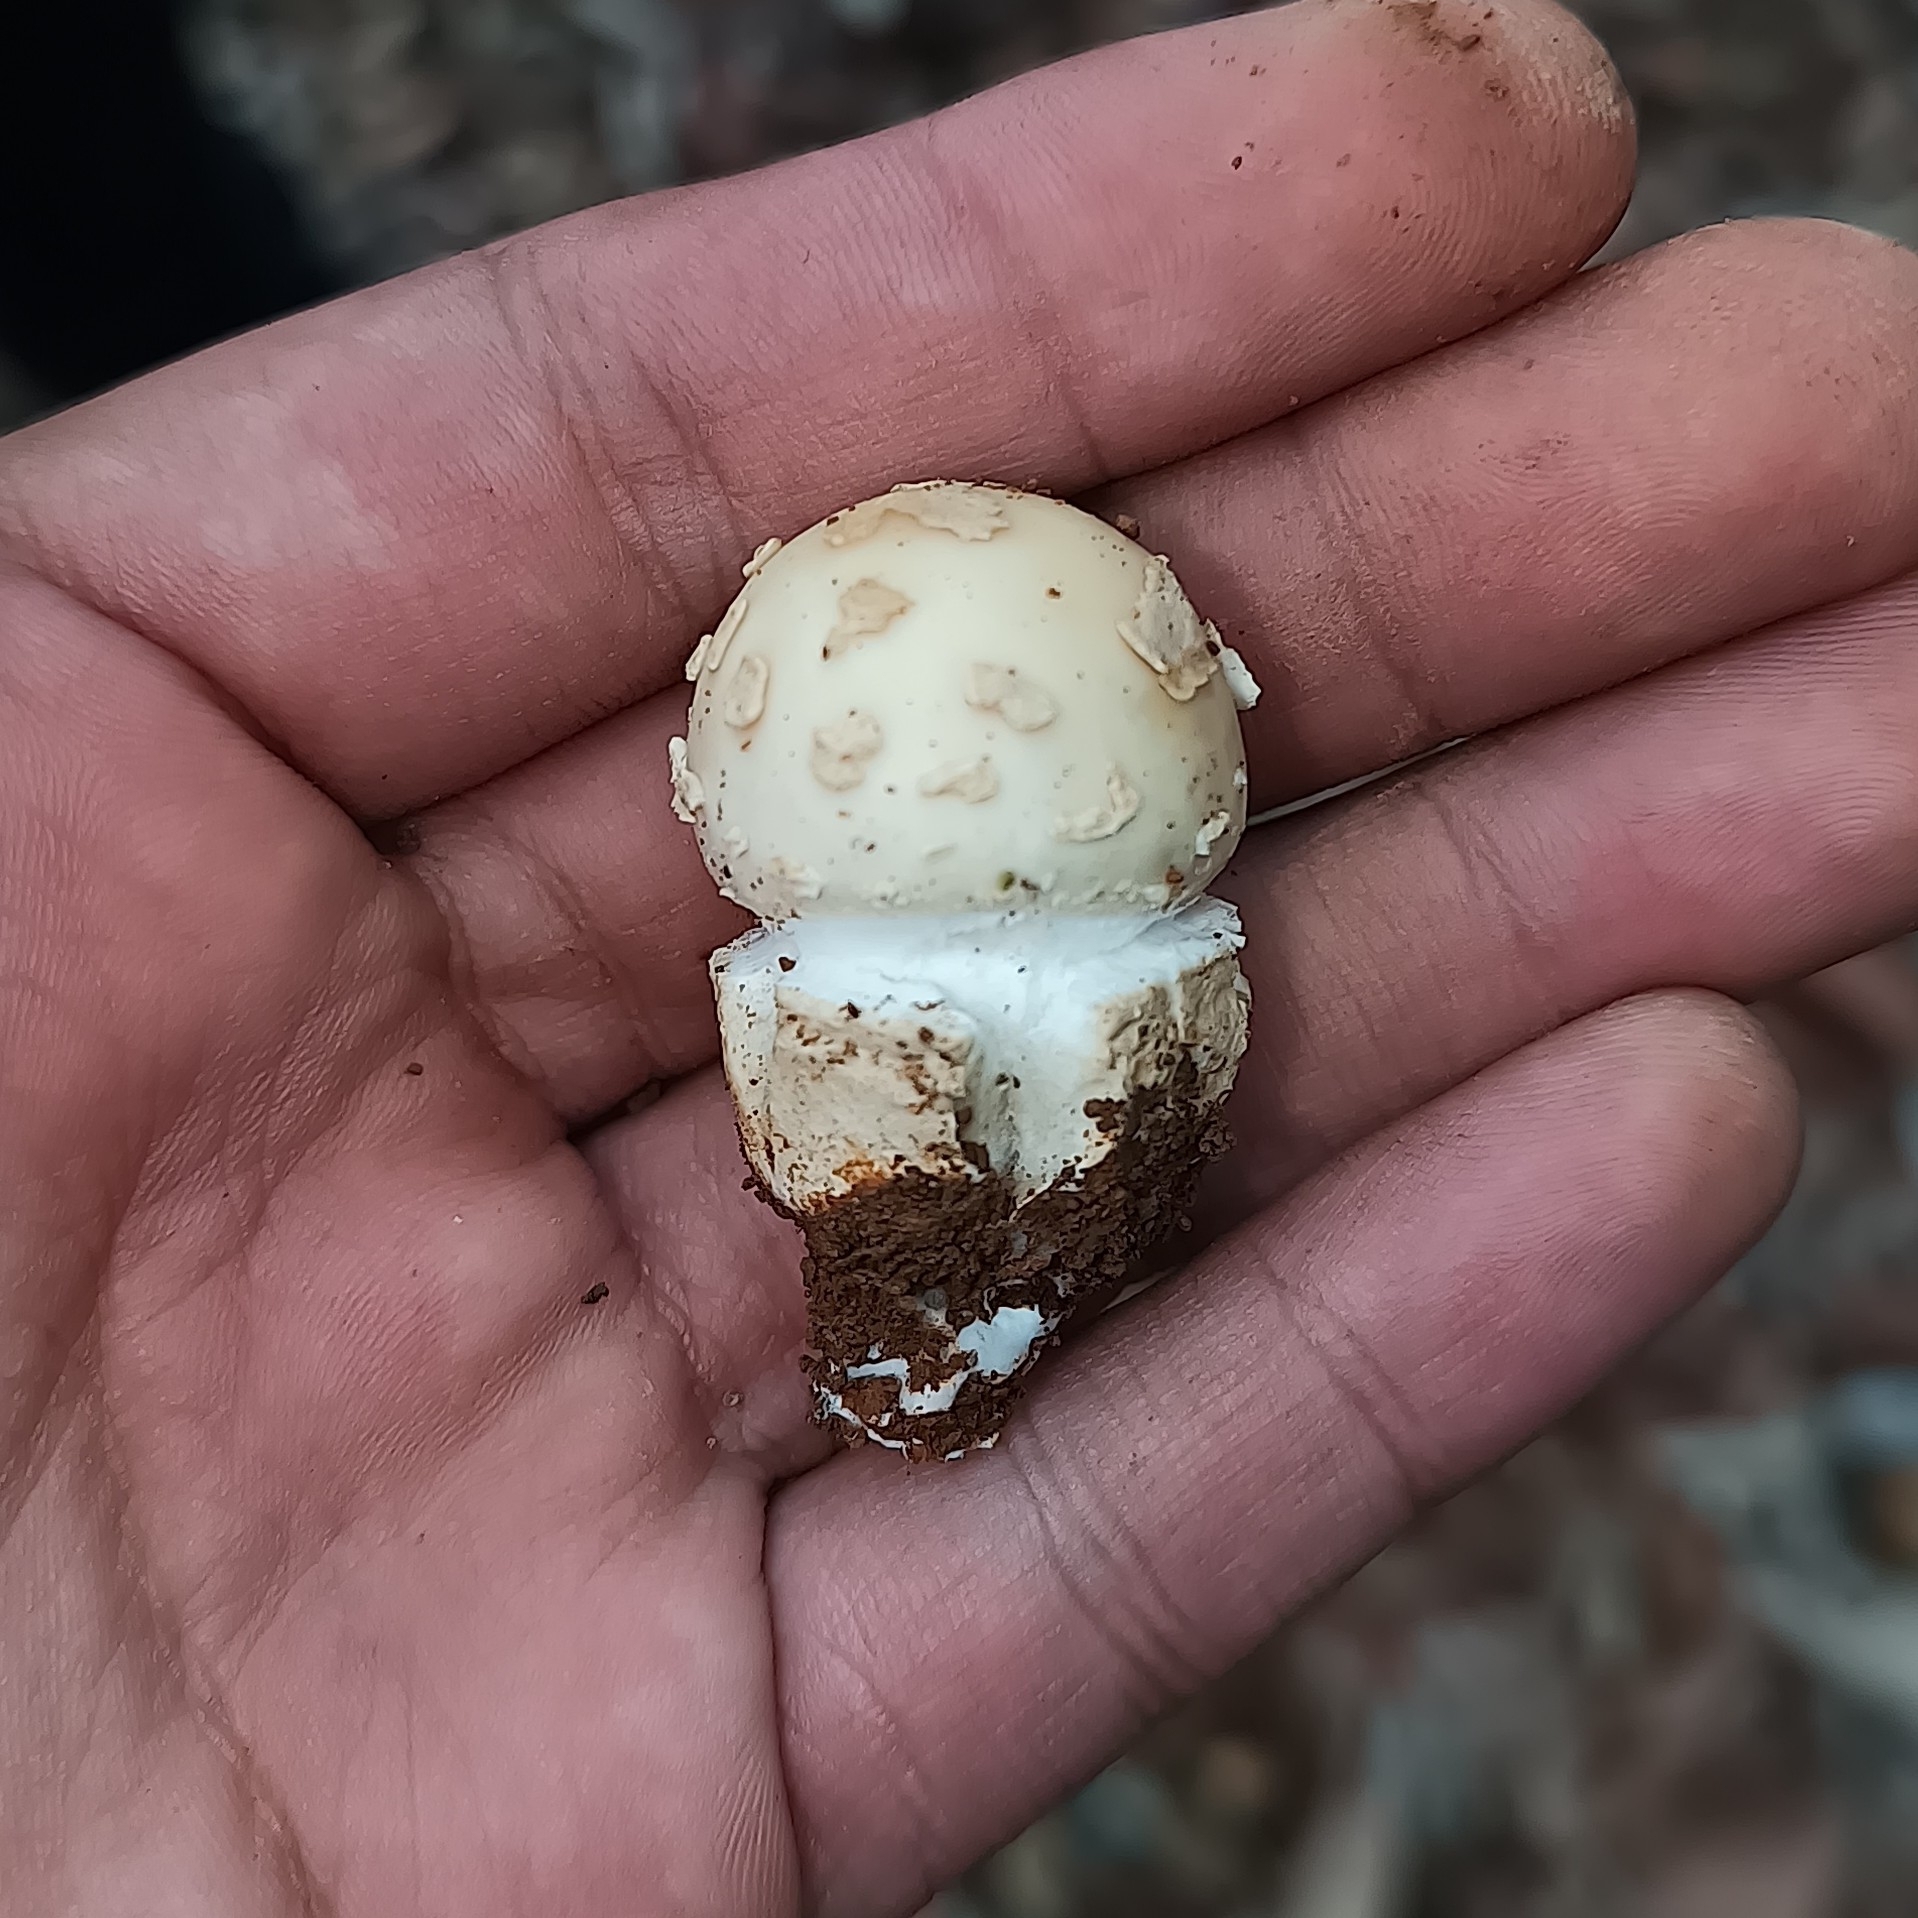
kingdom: Fungi
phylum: Basidiomycota
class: Agaricomycetes
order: Agaricales
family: Amanitaceae
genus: Amanita
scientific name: Amanita xylinivolva
